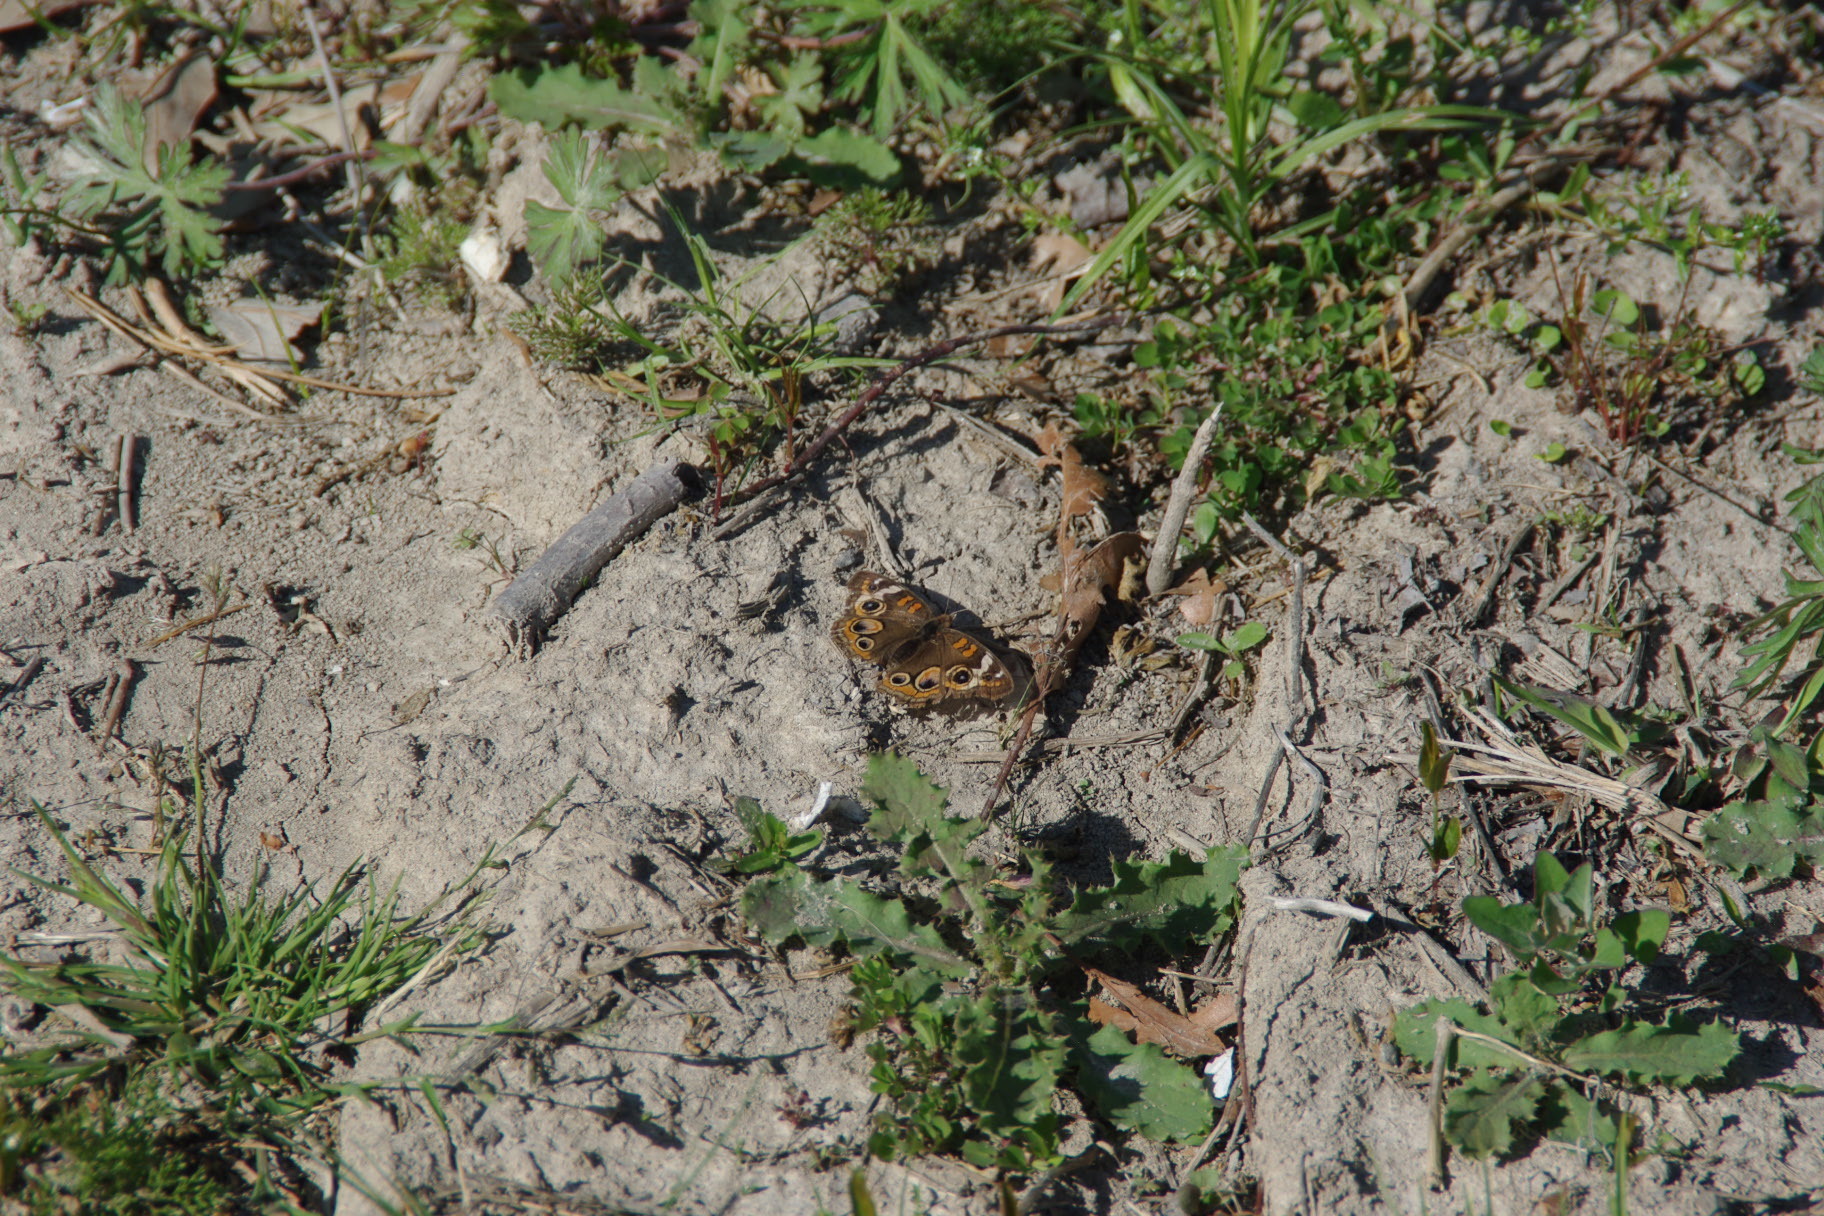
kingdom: Animalia
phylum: Arthropoda
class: Insecta
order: Lepidoptera
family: Nymphalidae
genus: Junonia
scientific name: Junonia coenia
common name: Common buckeye
